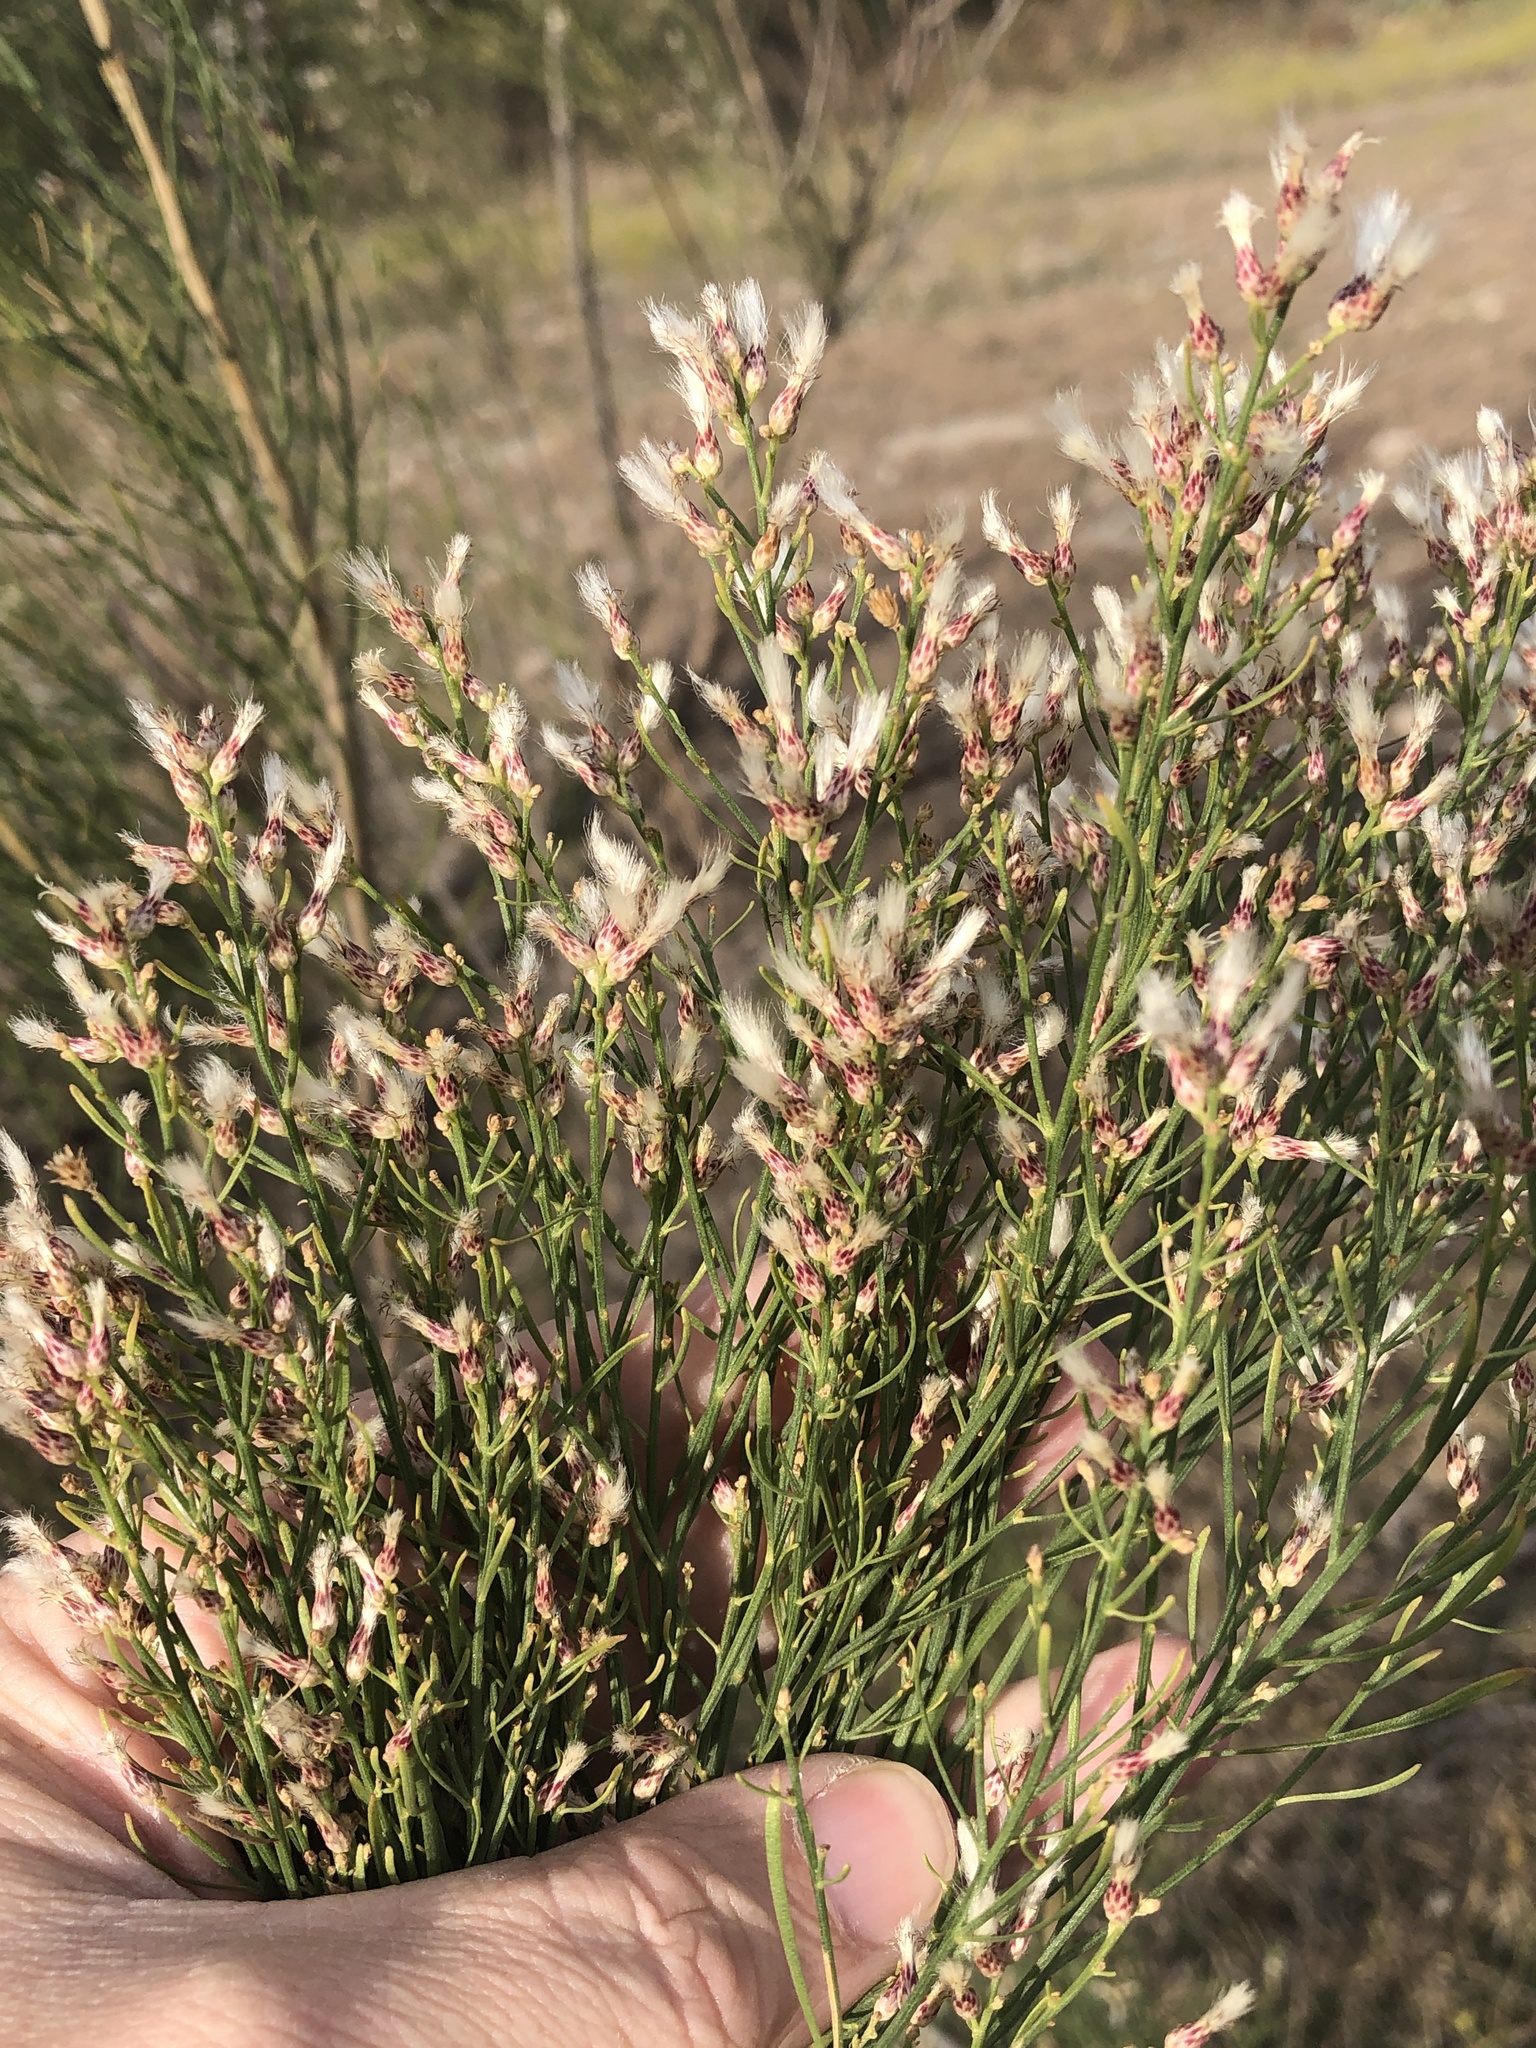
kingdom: Plantae
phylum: Tracheophyta
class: Magnoliopsida
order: Asterales
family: Asteraceae
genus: Baccharis
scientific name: Baccharis neglecta
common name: Roosevelt-weed
